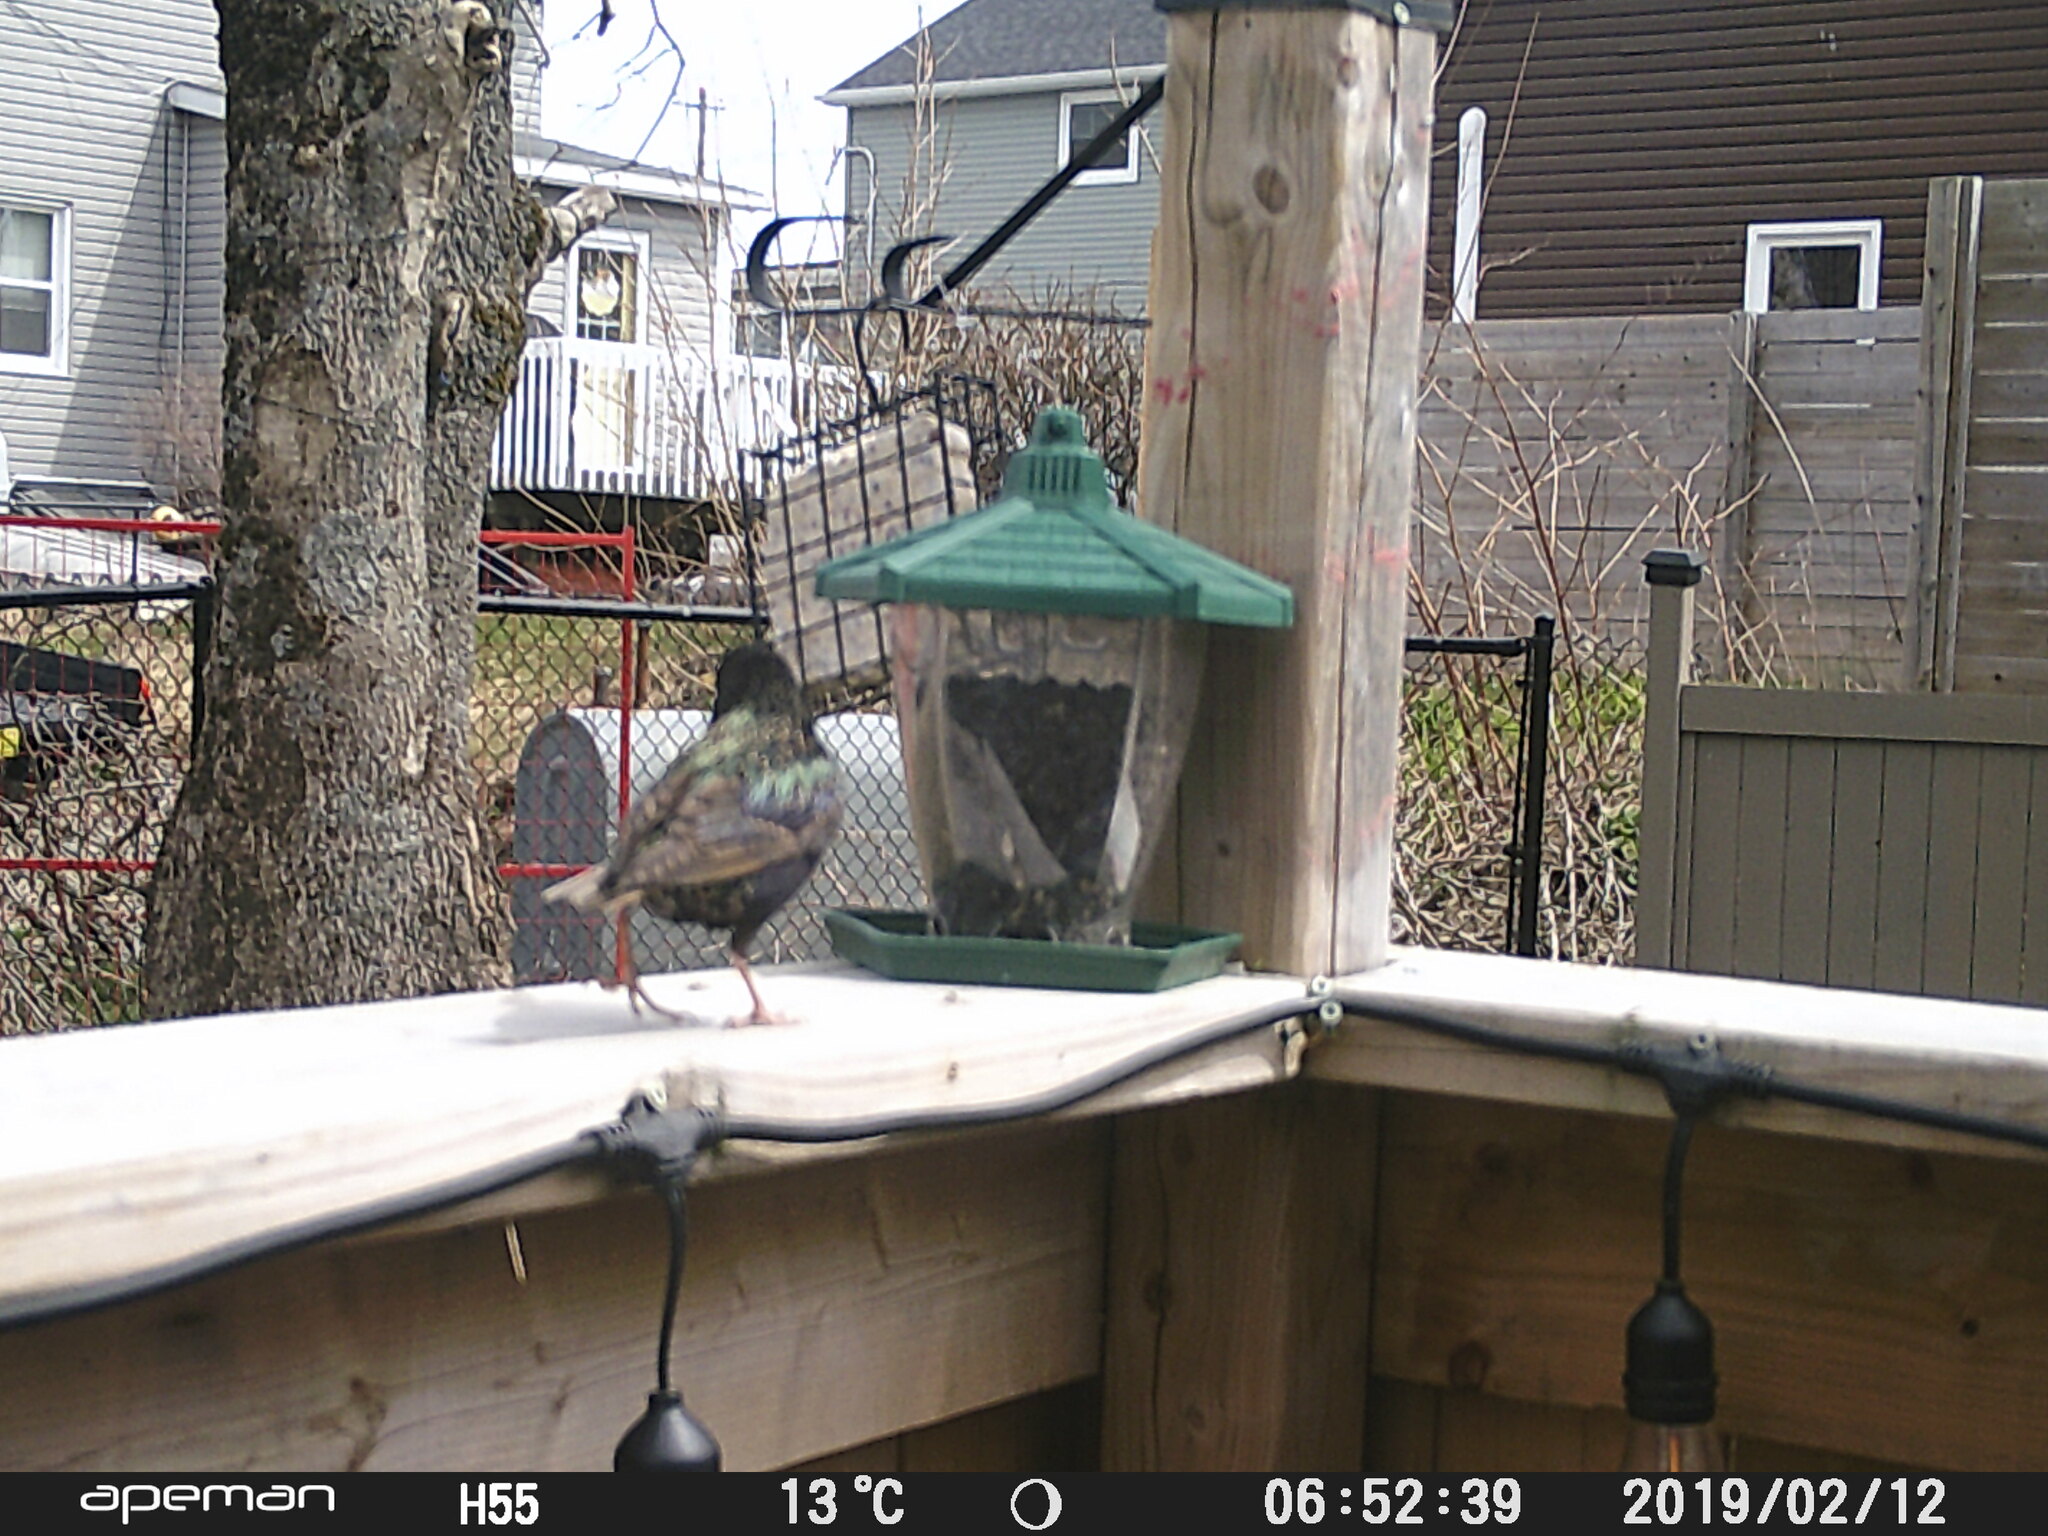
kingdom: Animalia
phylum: Chordata
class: Aves
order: Passeriformes
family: Sturnidae
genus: Sturnus
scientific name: Sturnus vulgaris
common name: Common starling
